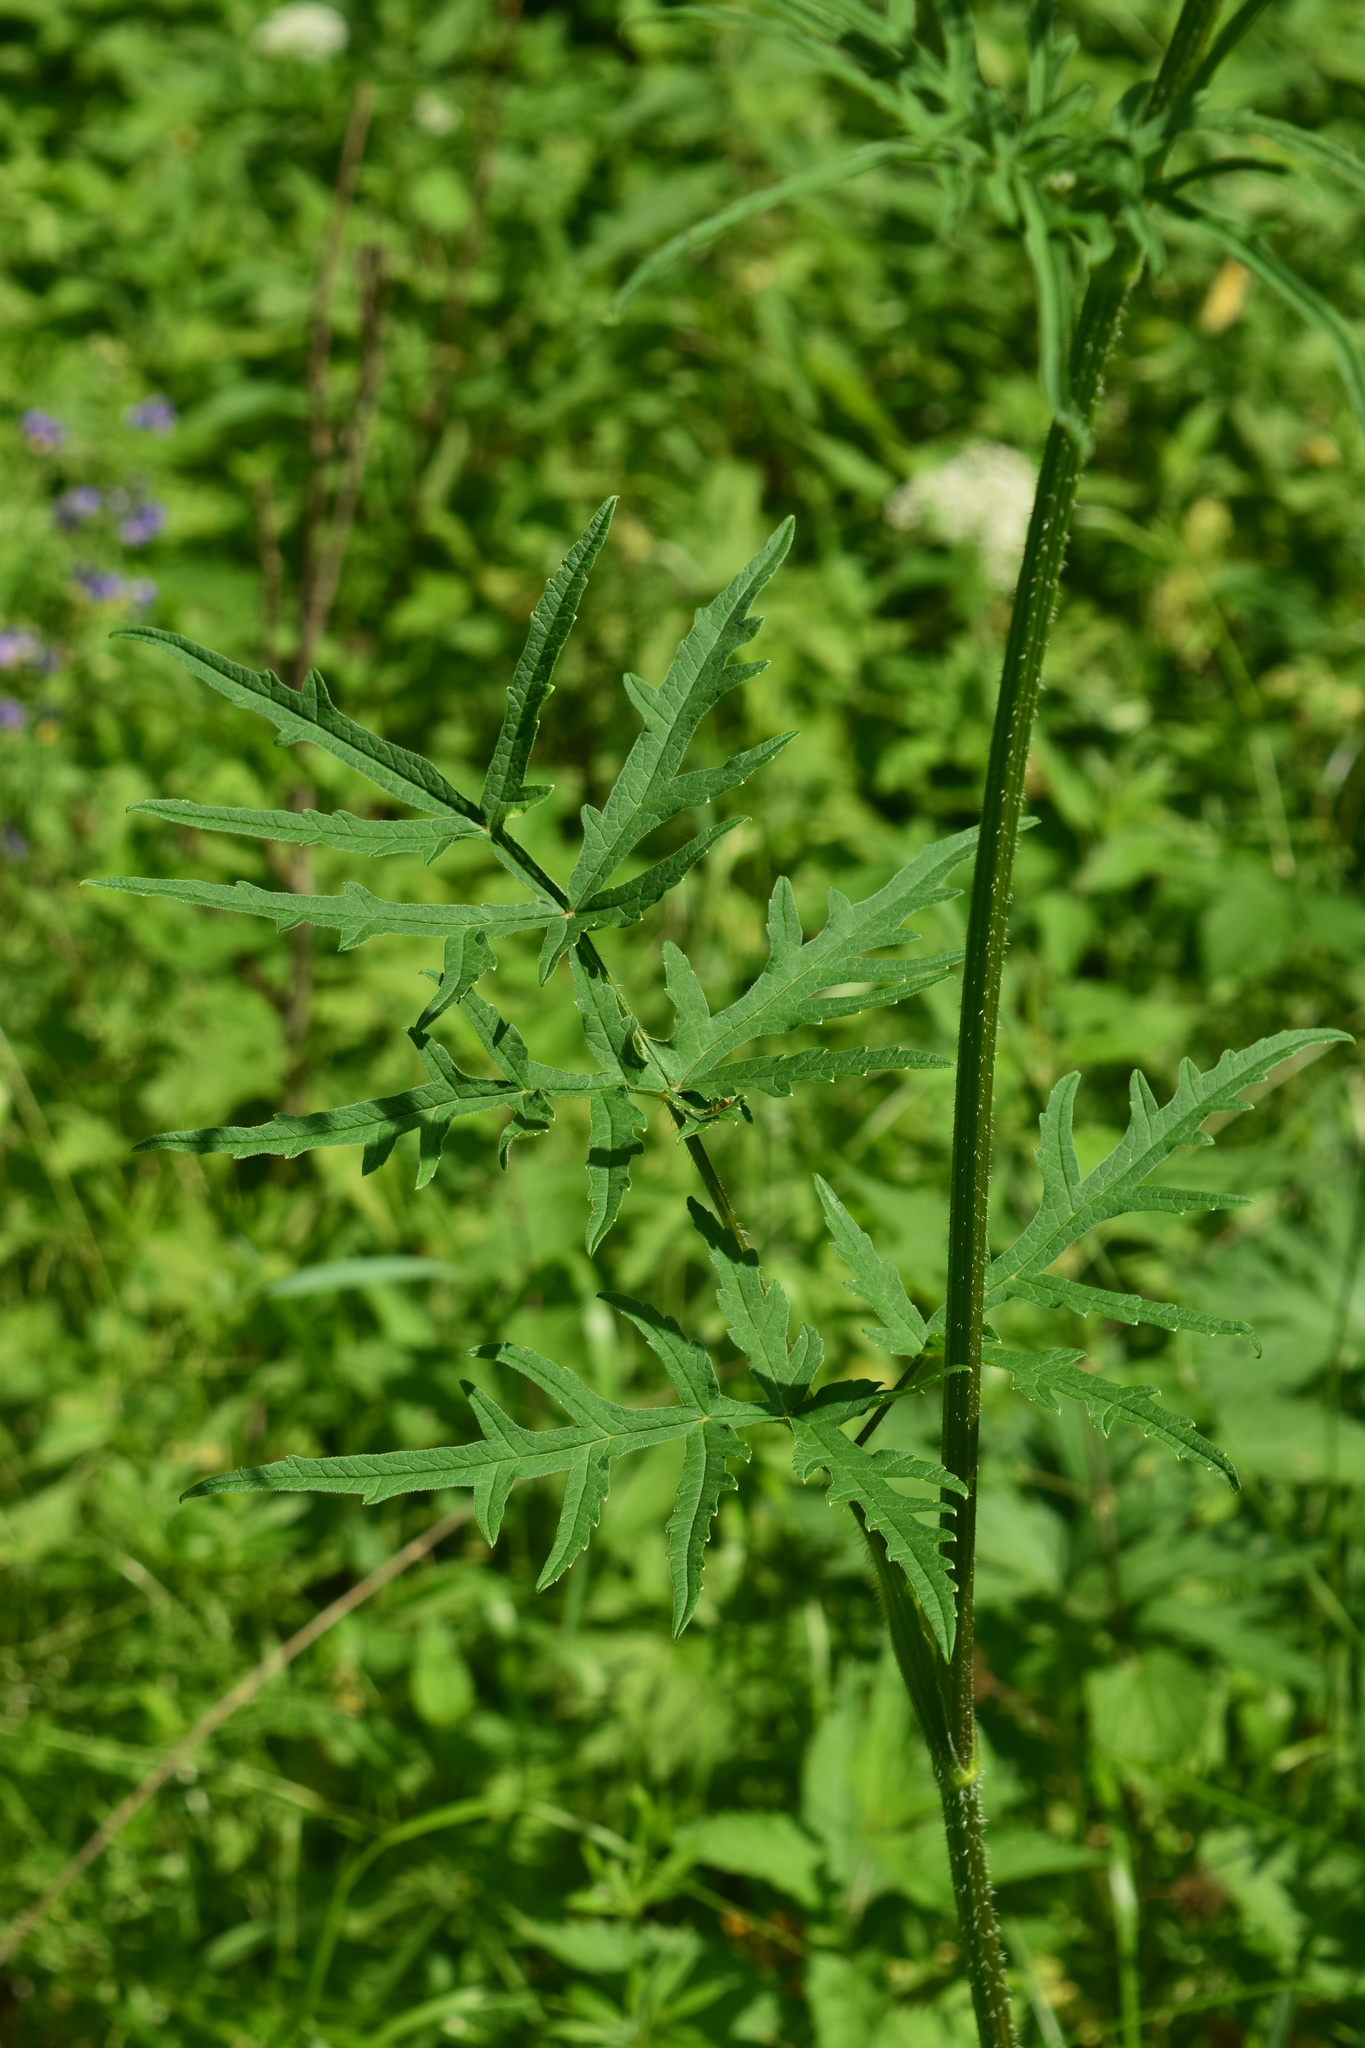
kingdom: Plantae
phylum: Tracheophyta
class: Magnoliopsida
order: Apiales
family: Apiaceae
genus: Heracleum
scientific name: Heracleum sphondylium
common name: Hogweed
